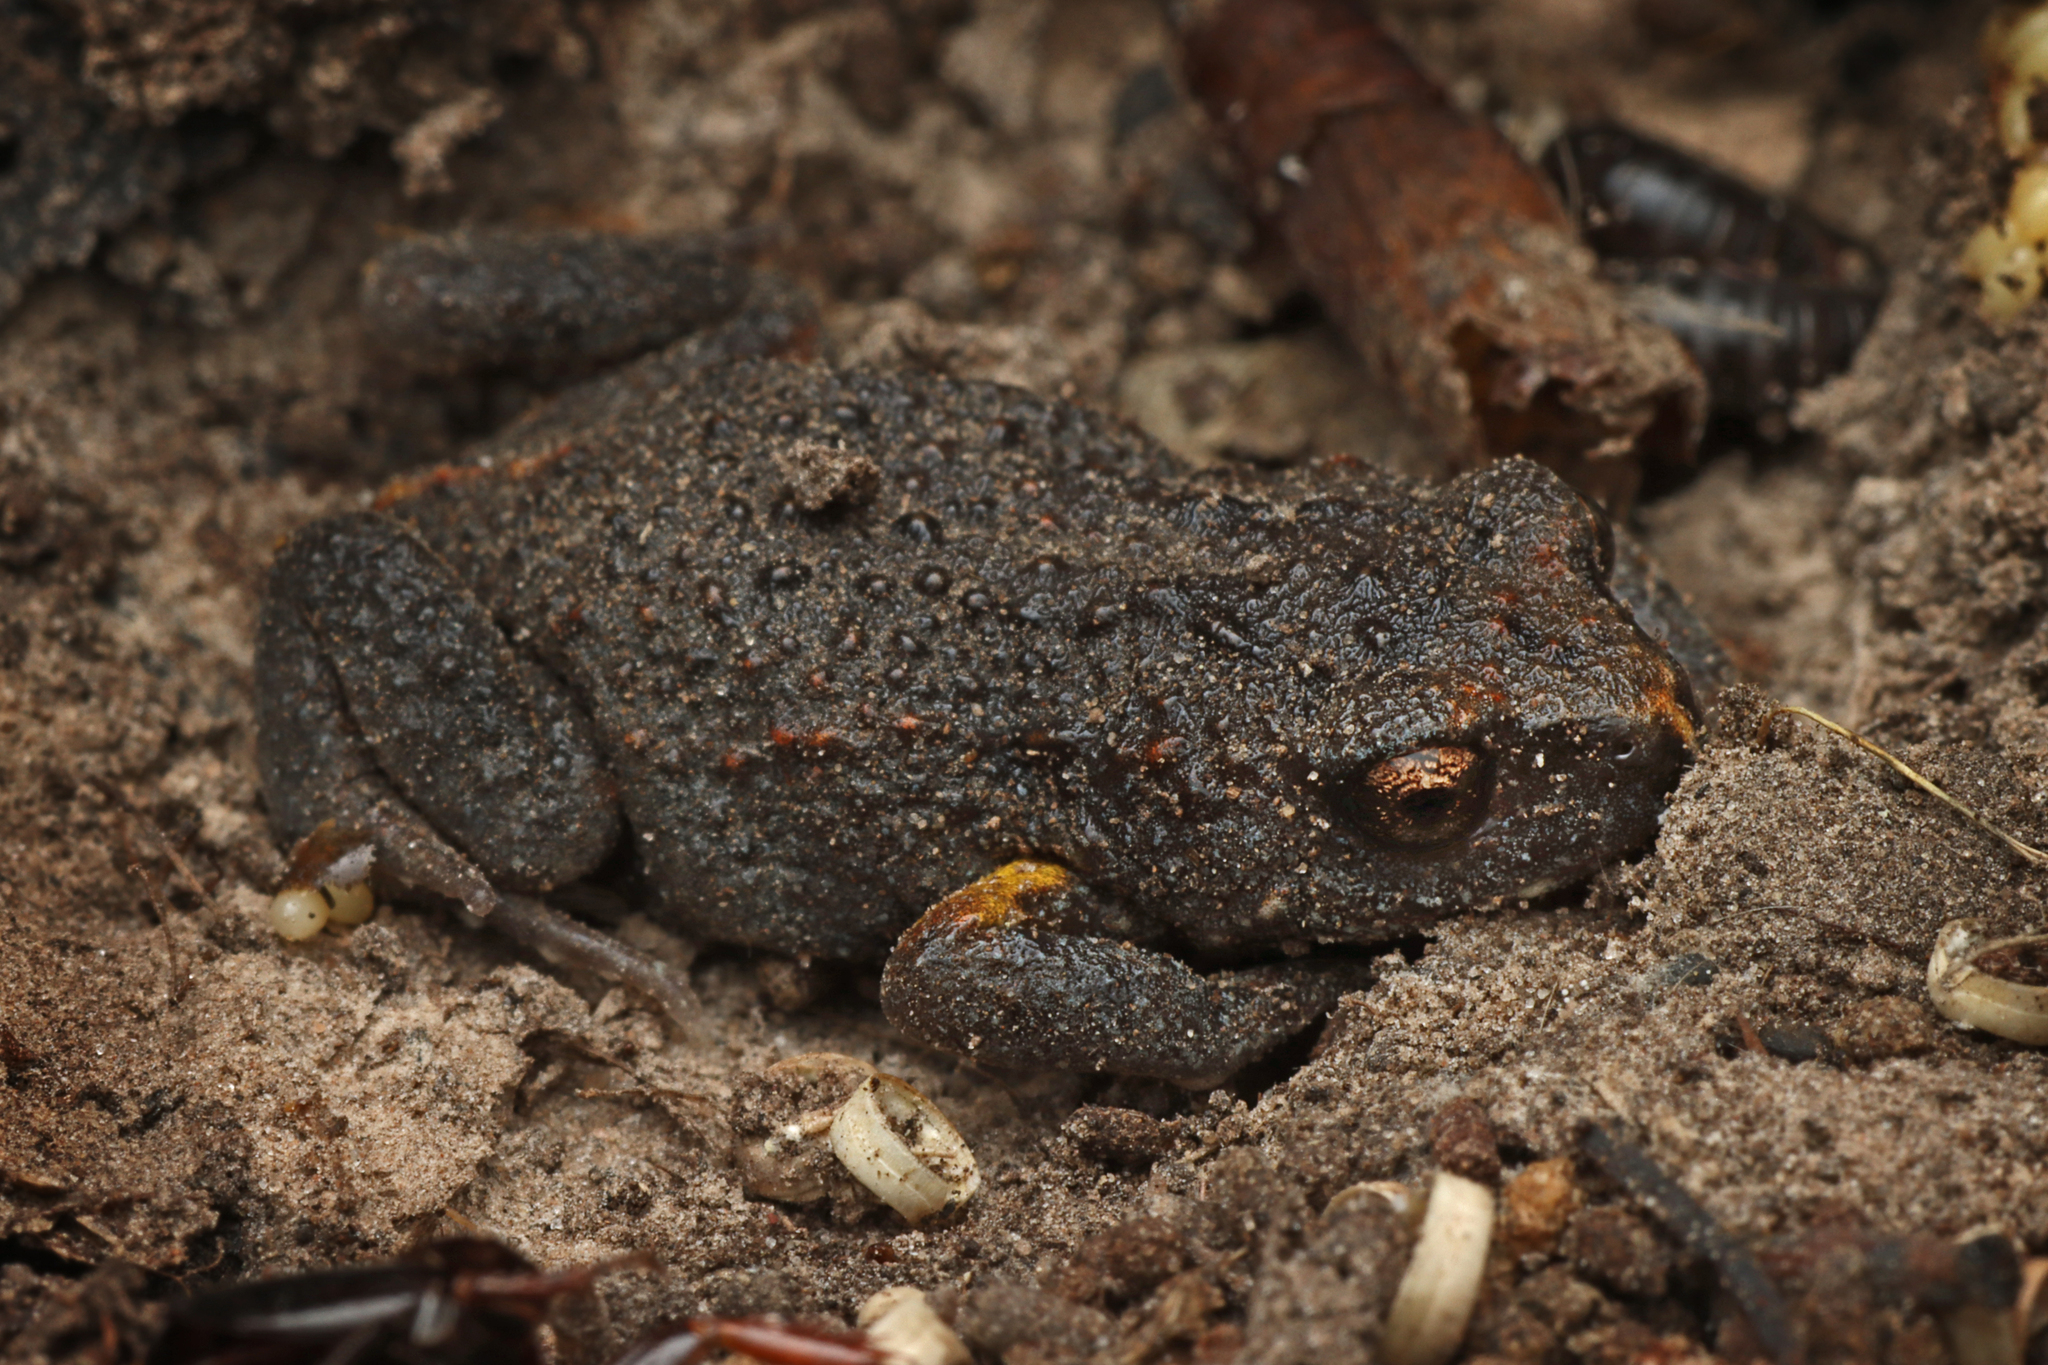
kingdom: Animalia
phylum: Chordata
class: Amphibia
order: Anura
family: Myobatrachidae
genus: Pseudophryne
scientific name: Pseudophryne bibronii
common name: Bibron’s toadlet
